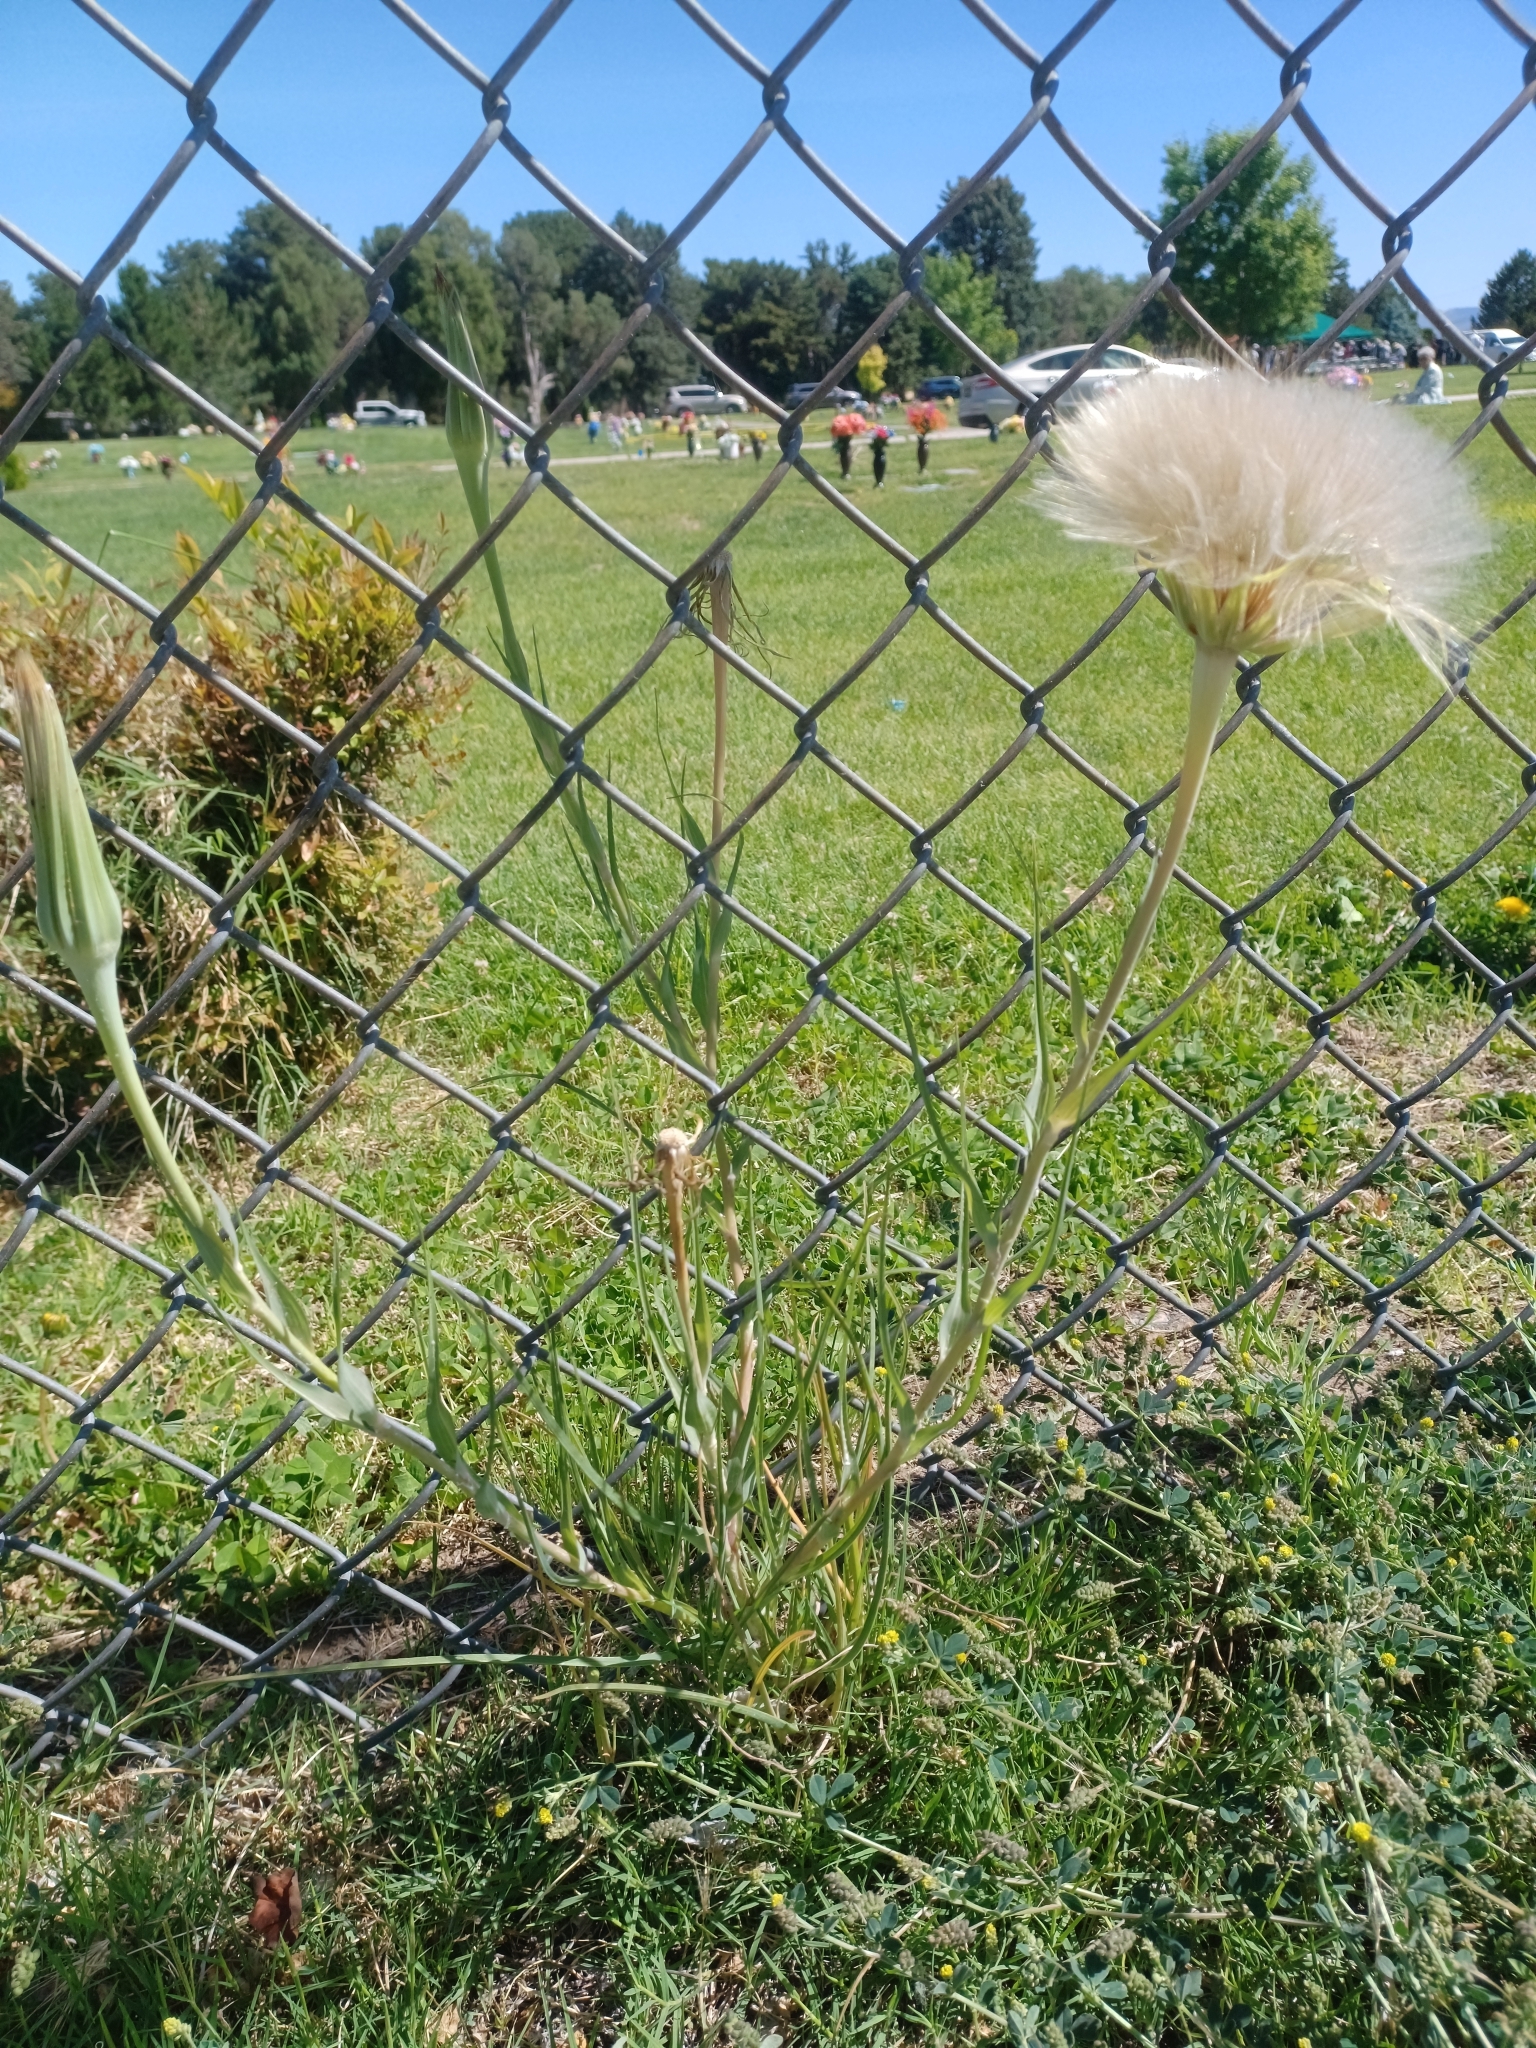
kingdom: Plantae
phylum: Tracheophyta
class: Magnoliopsida
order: Asterales
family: Asteraceae
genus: Tragopogon
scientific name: Tragopogon dubius
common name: Yellow salsify
